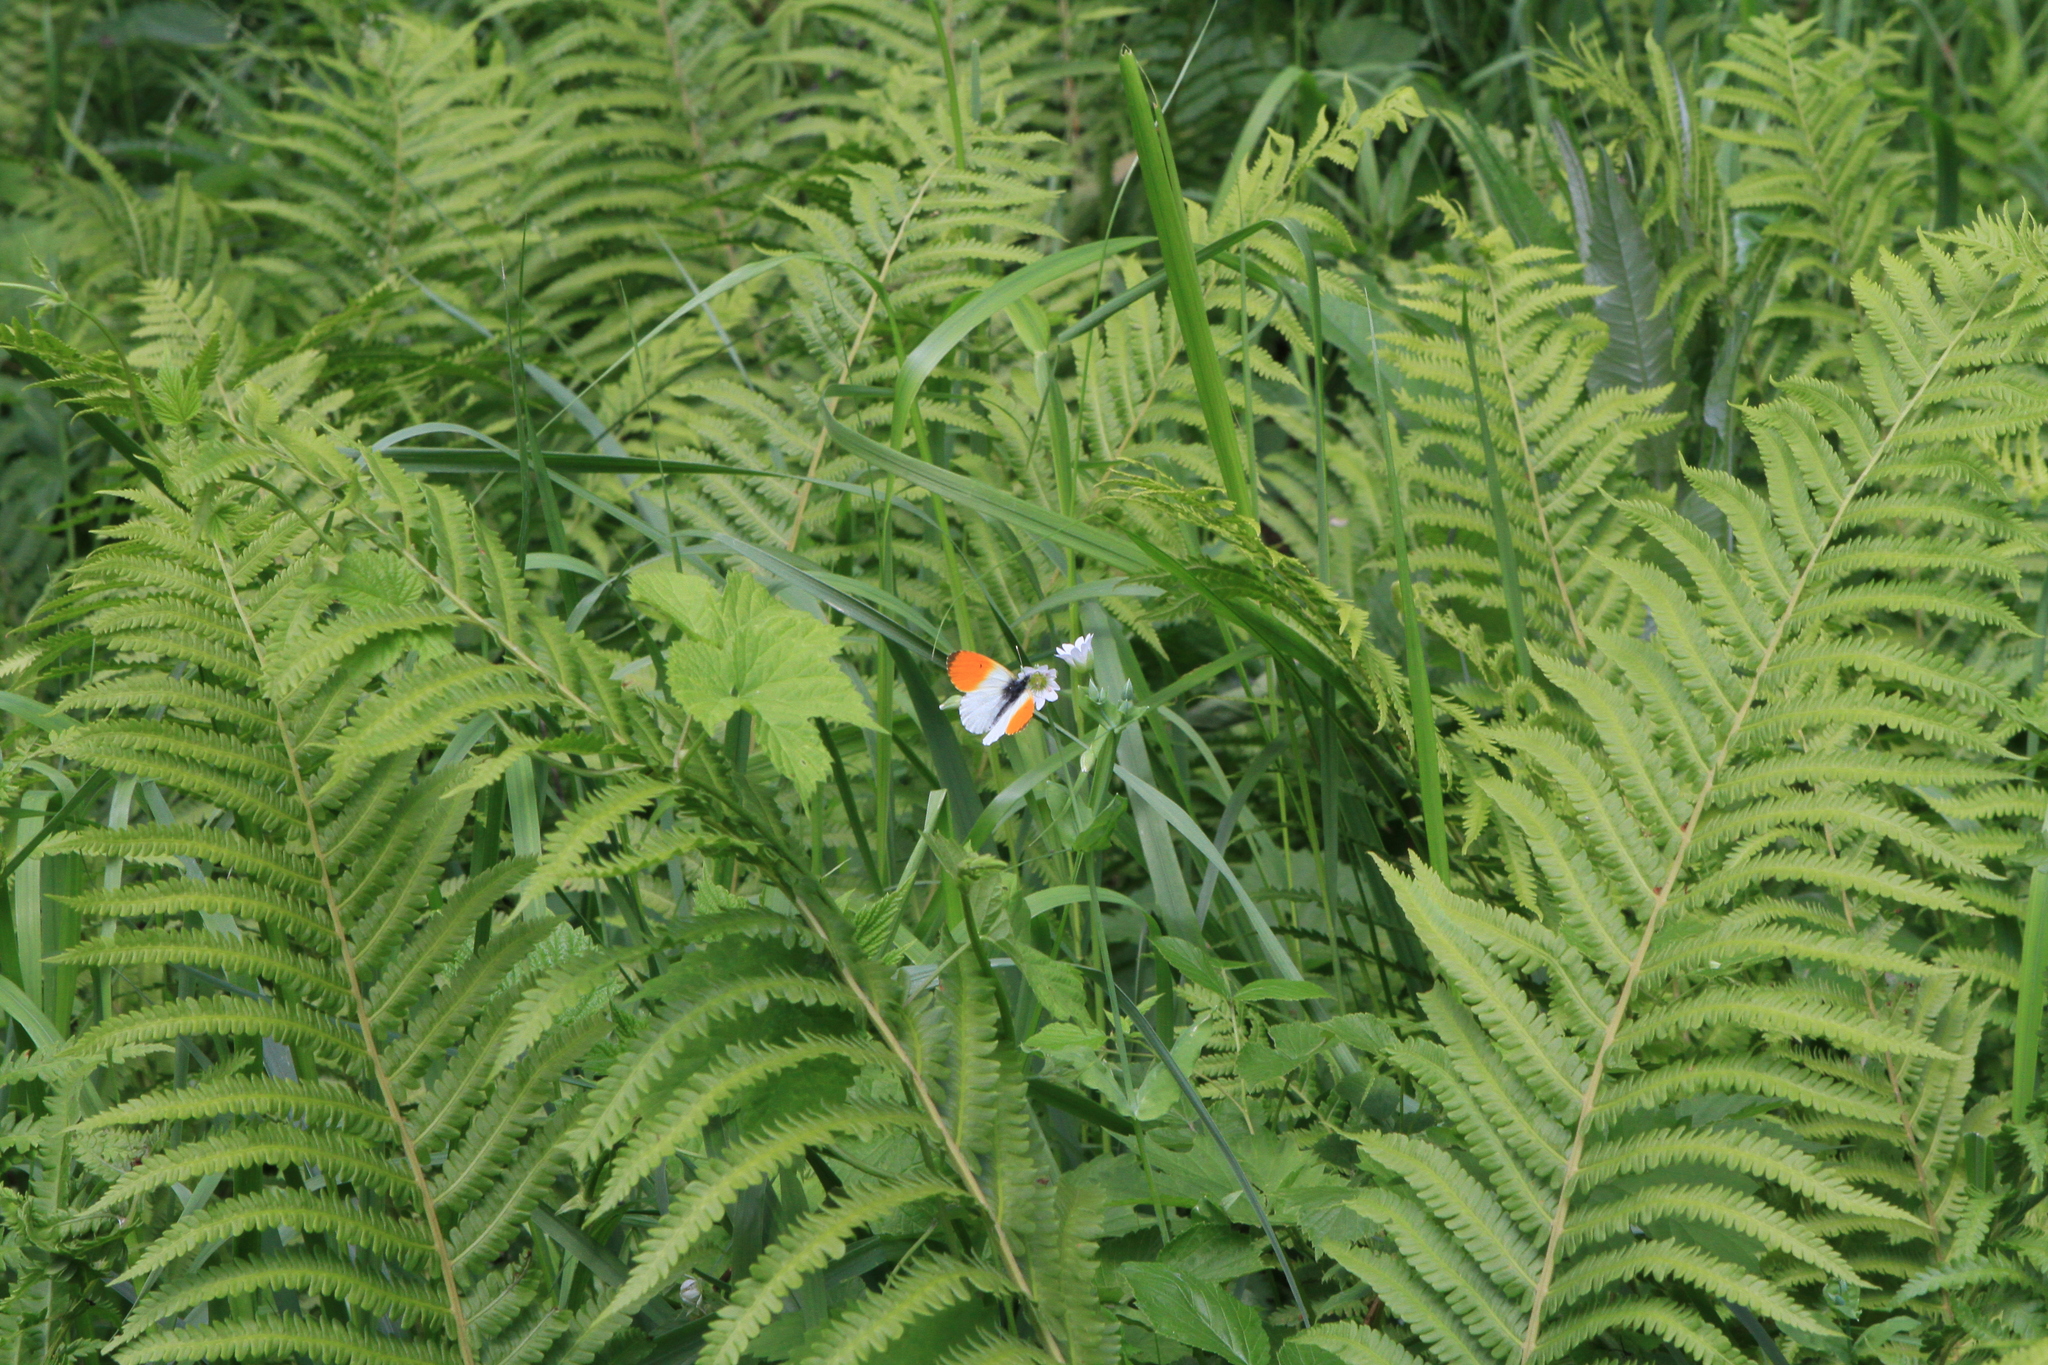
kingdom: Plantae
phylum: Tracheophyta
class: Polypodiopsida
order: Polypodiales
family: Onocleaceae
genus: Matteuccia
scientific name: Matteuccia struthiopteris
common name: Ostrich fern
